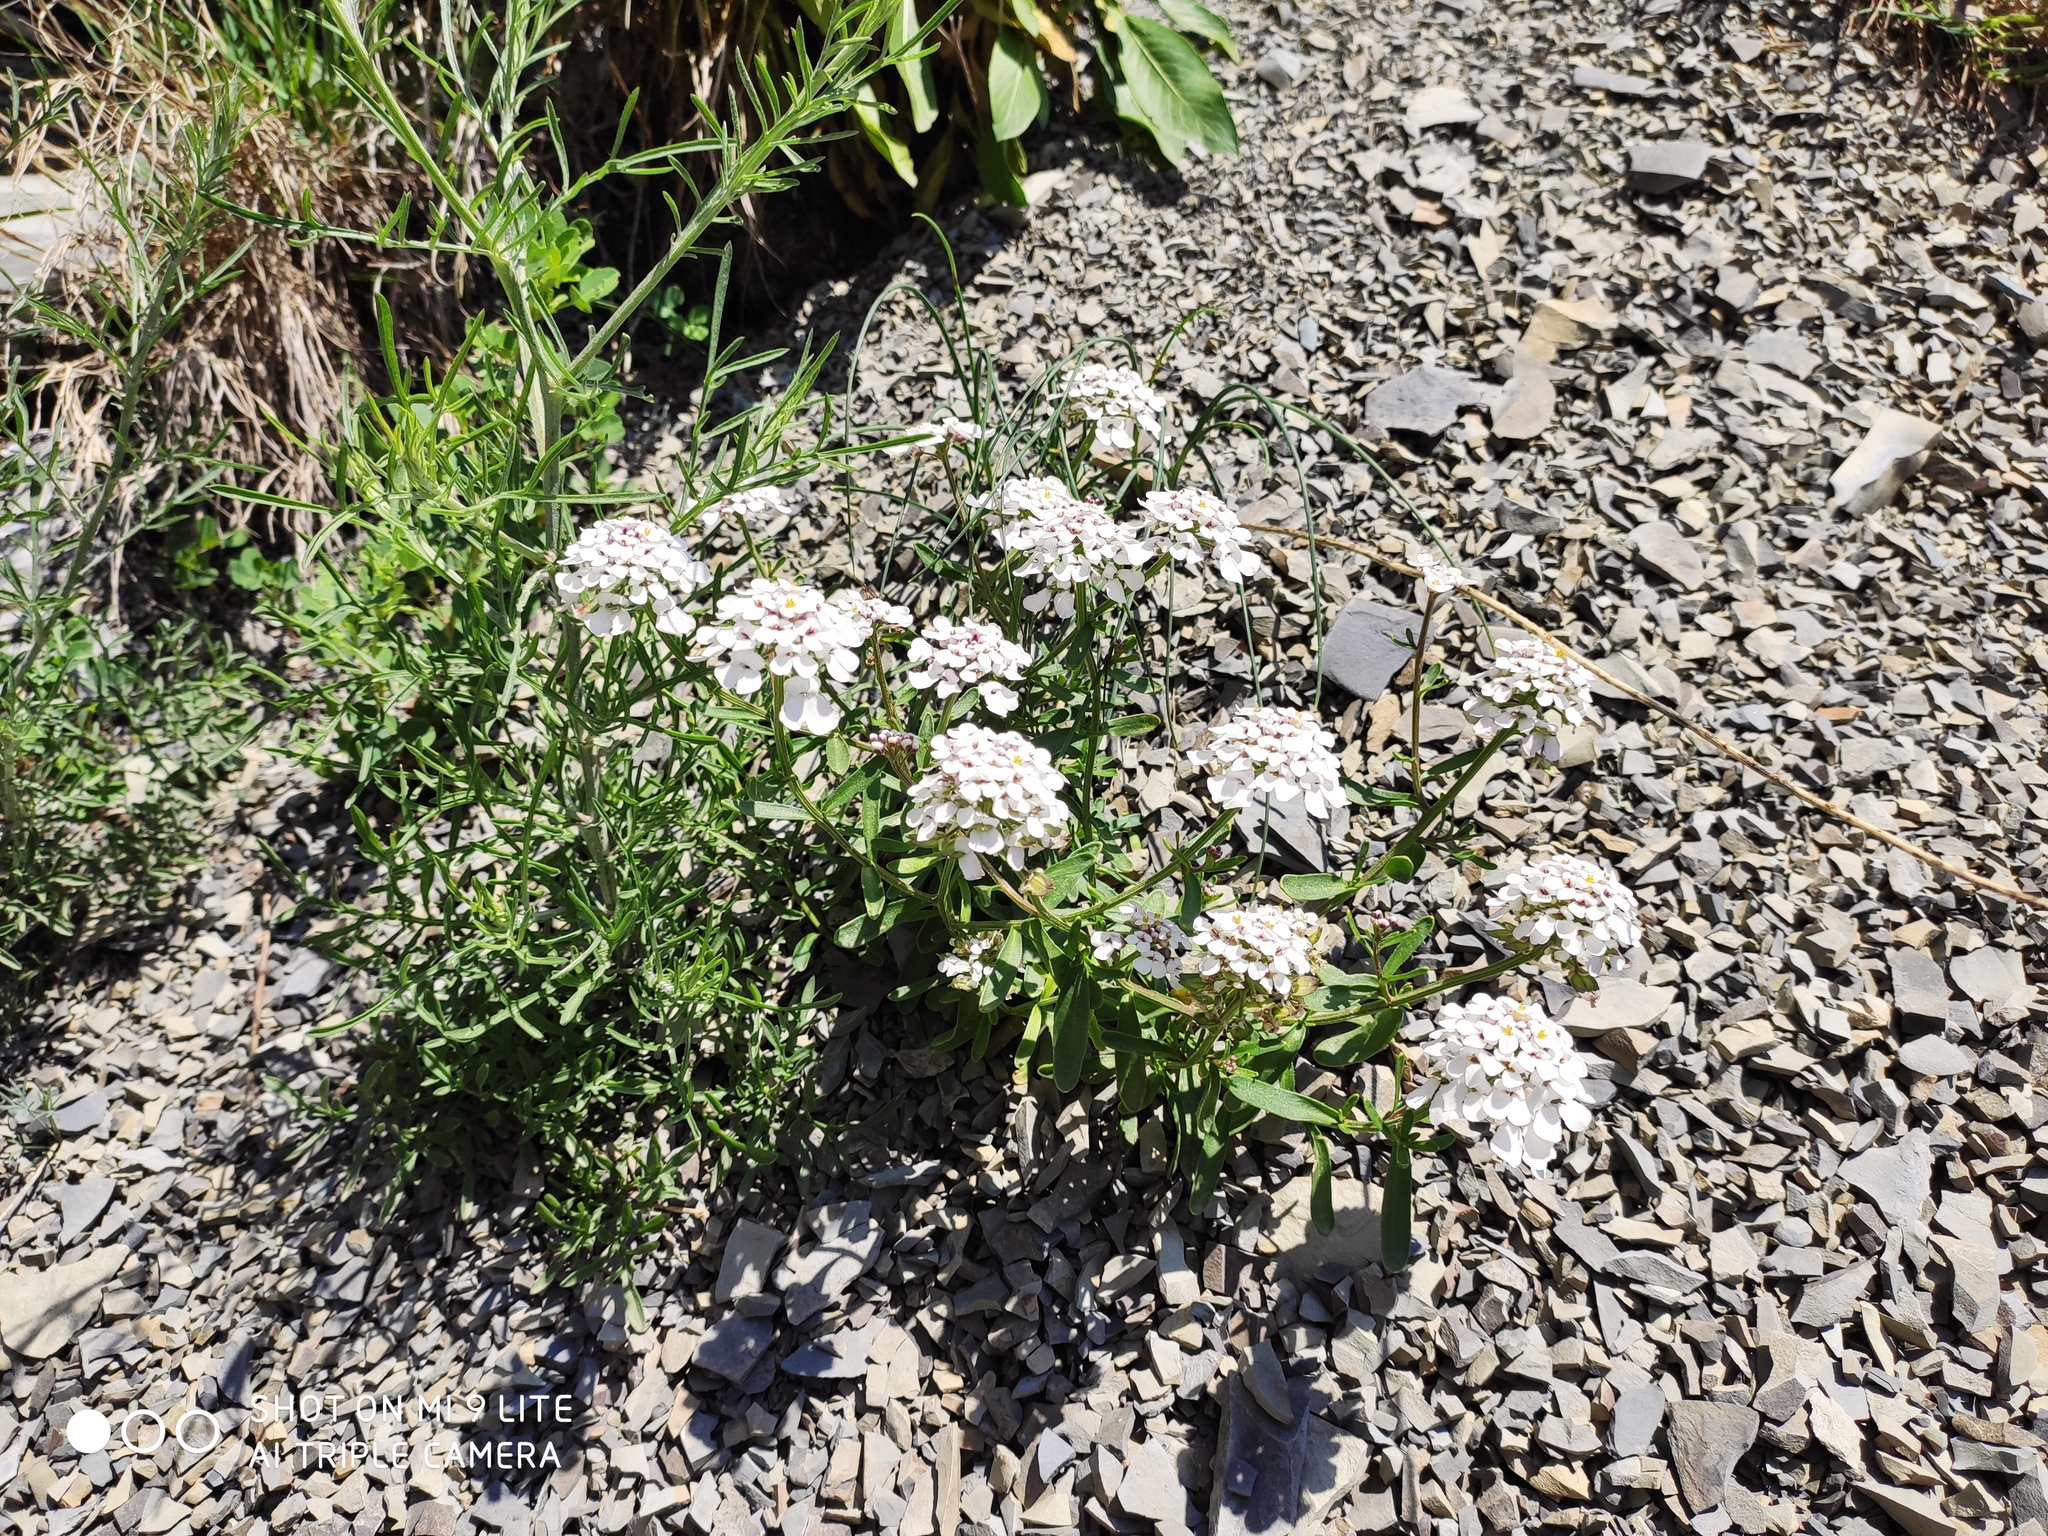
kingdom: Plantae
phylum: Tracheophyta
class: Magnoliopsida
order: Brassicales
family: Brassicaceae
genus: Iberis
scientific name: Iberis simplex
